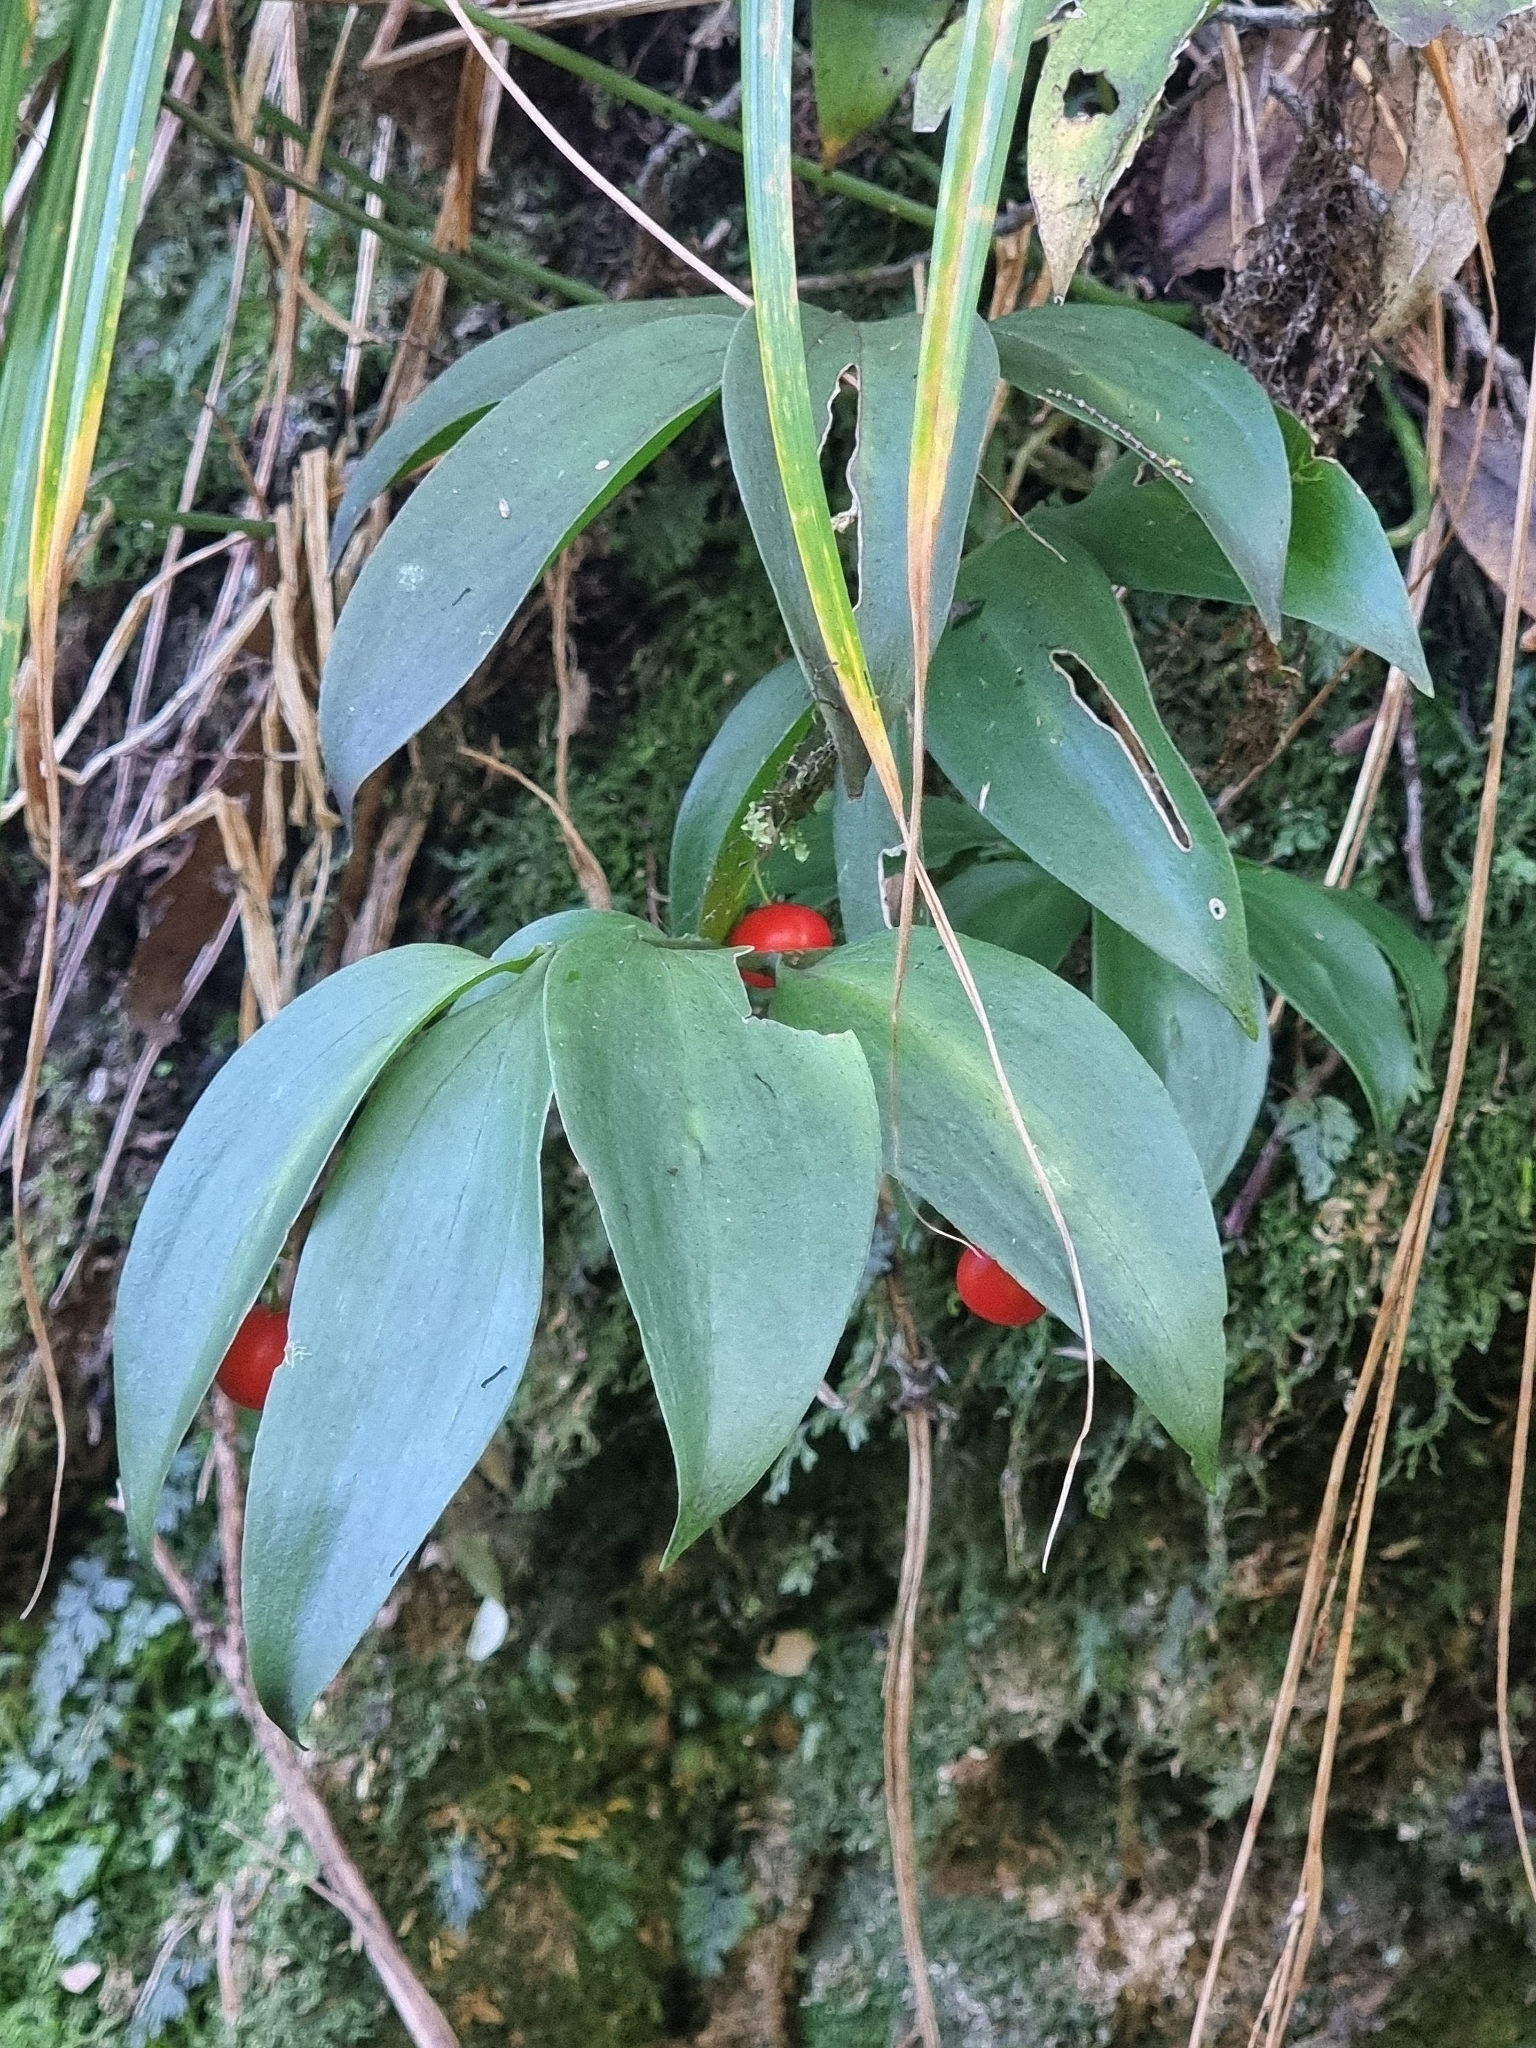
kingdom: Plantae
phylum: Tracheophyta
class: Liliopsida
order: Asparagales
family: Asparagaceae
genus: Ruscus
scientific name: Ruscus streptophyllus
